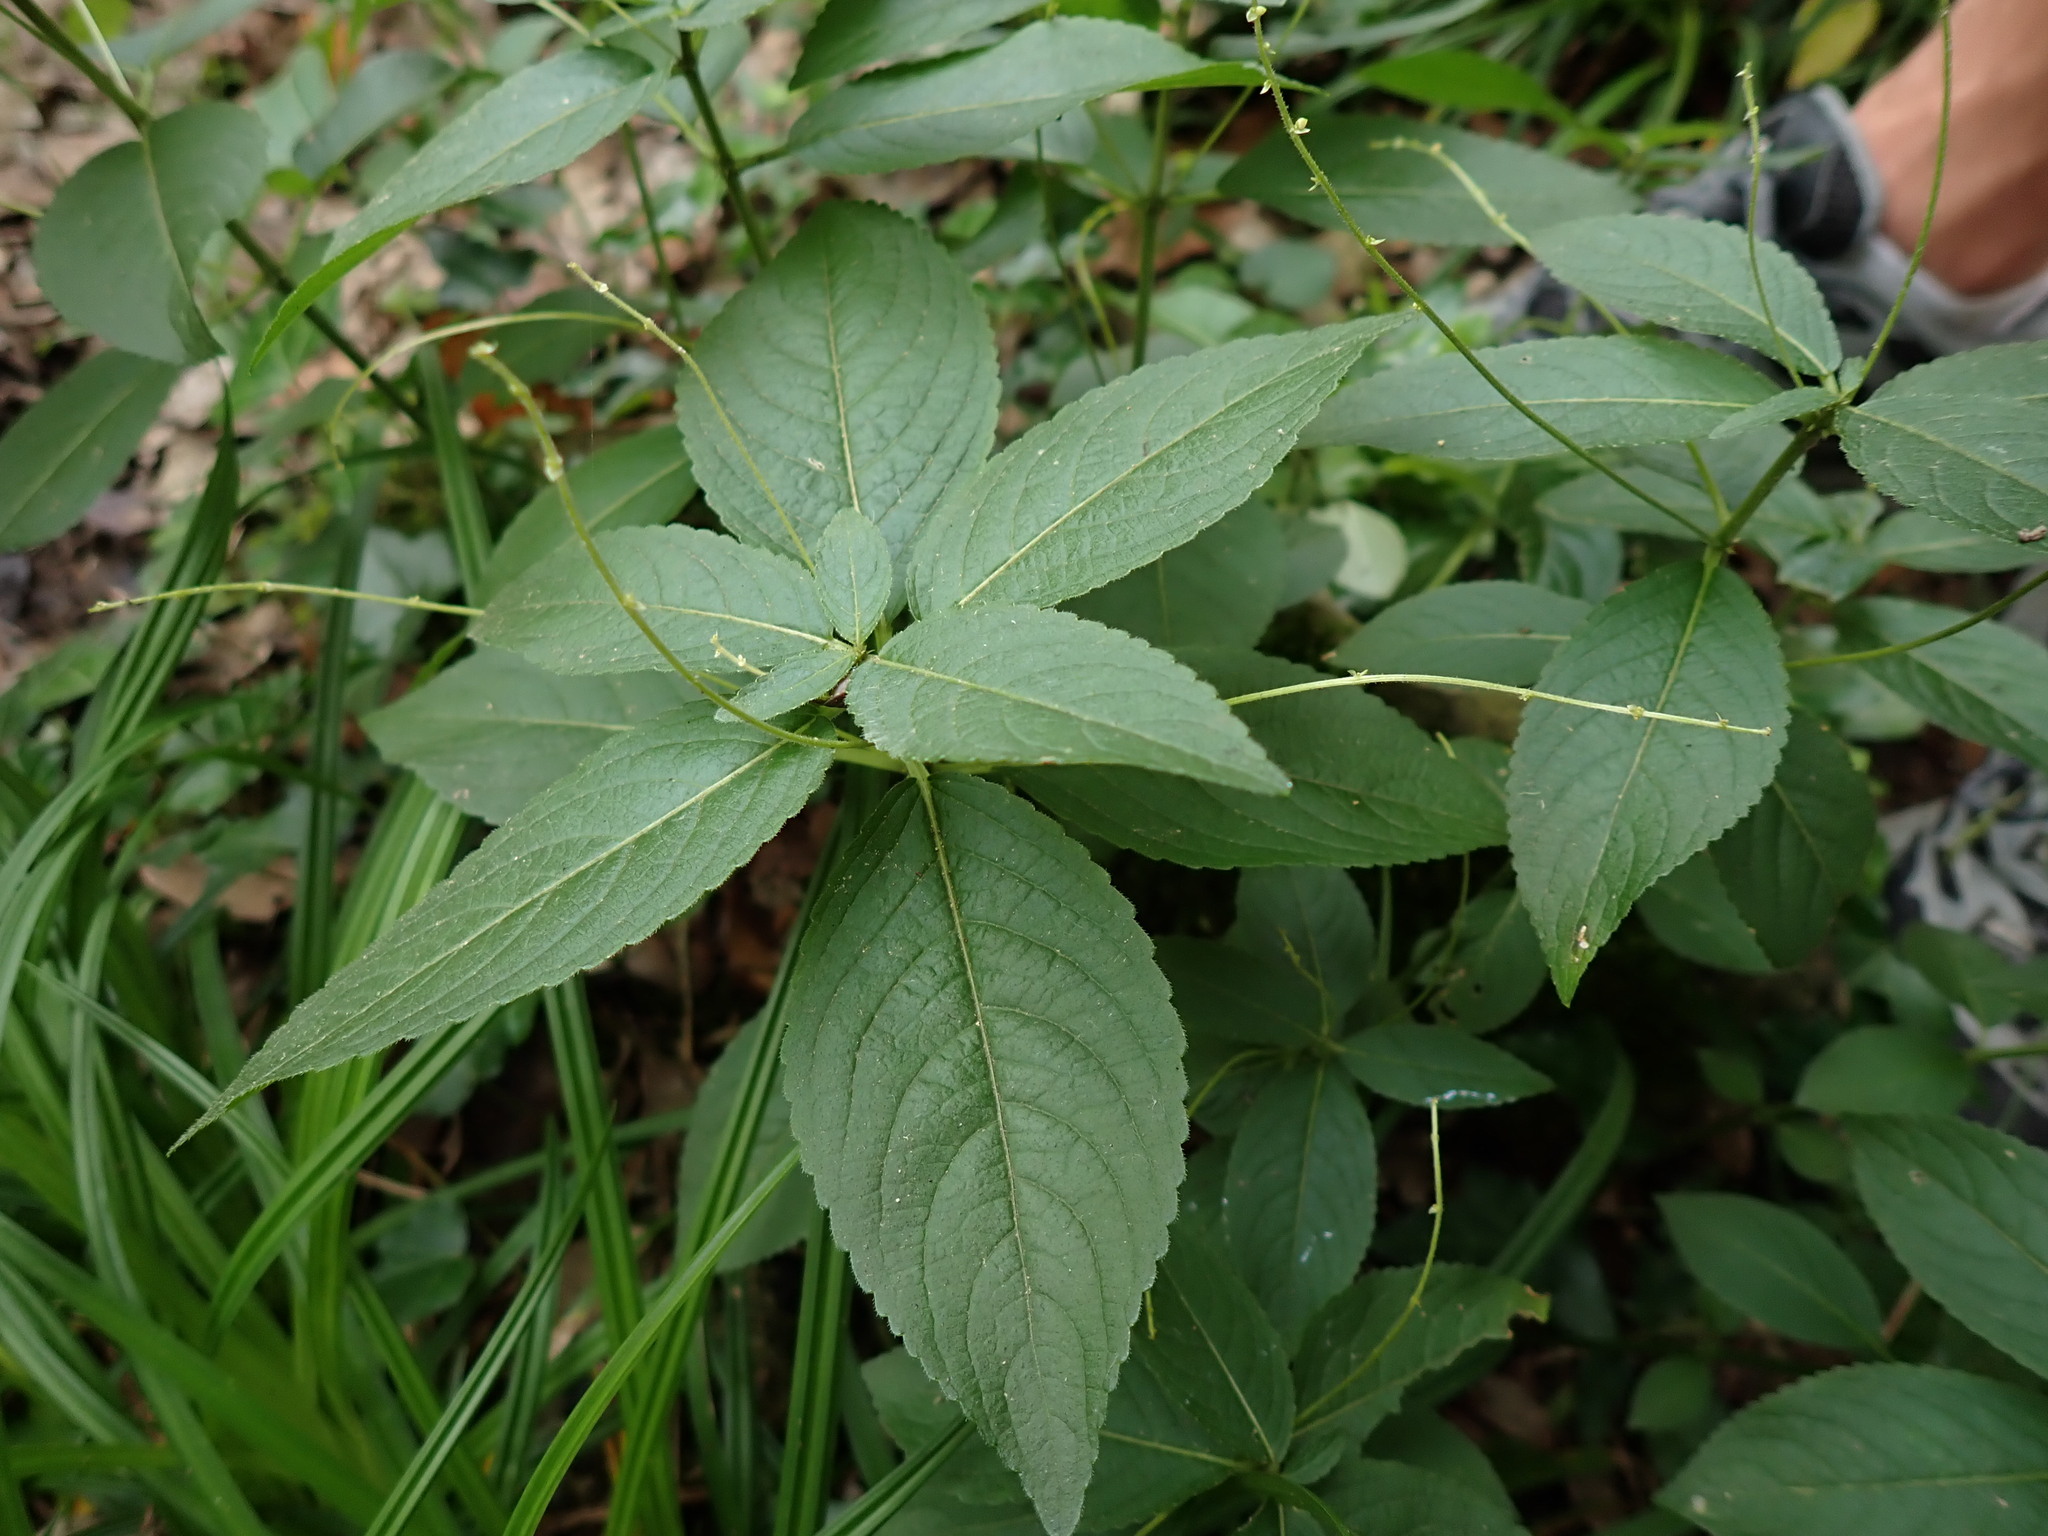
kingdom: Plantae
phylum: Tracheophyta
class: Magnoliopsida
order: Malpighiales
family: Euphorbiaceae
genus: Mercurialis
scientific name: Mercurialis perennis
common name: Dog mercury
